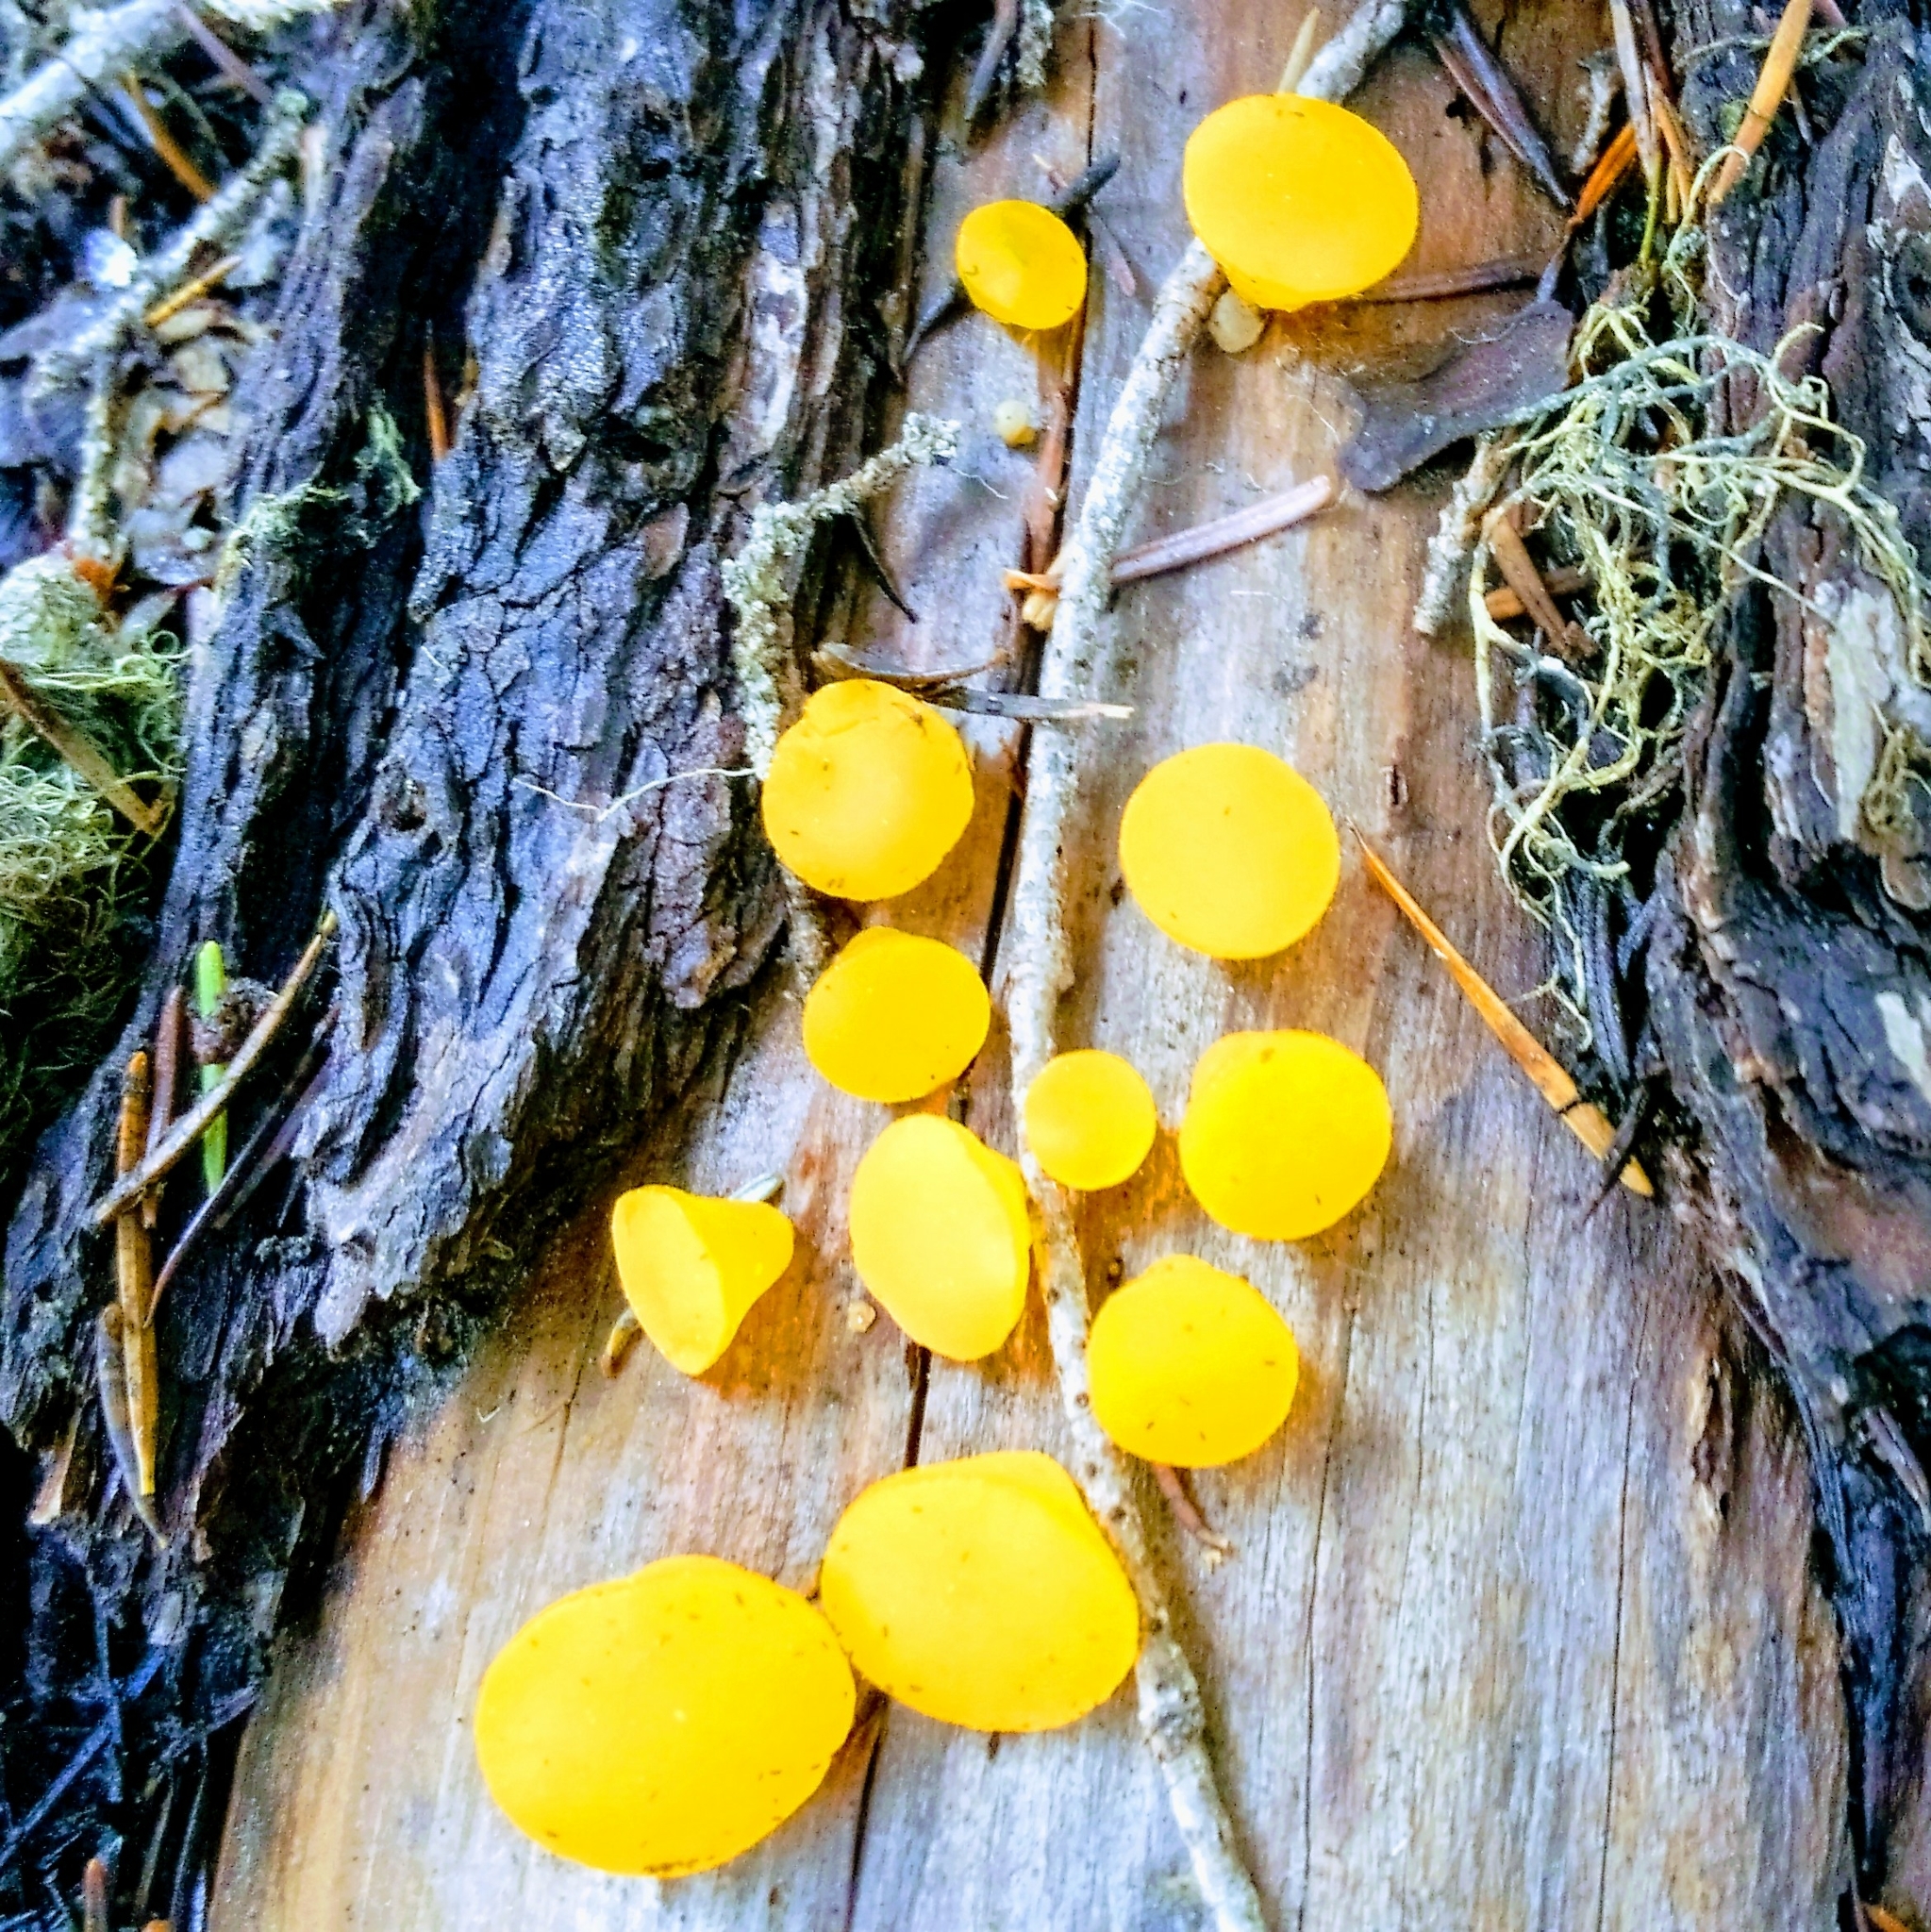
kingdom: Fungi
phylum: Basidiomycota
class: Dacrymycetes
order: Dacrymycetales
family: Dacrymycetaceae
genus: Guepiniopsis
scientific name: Guepiniopsis alpina
